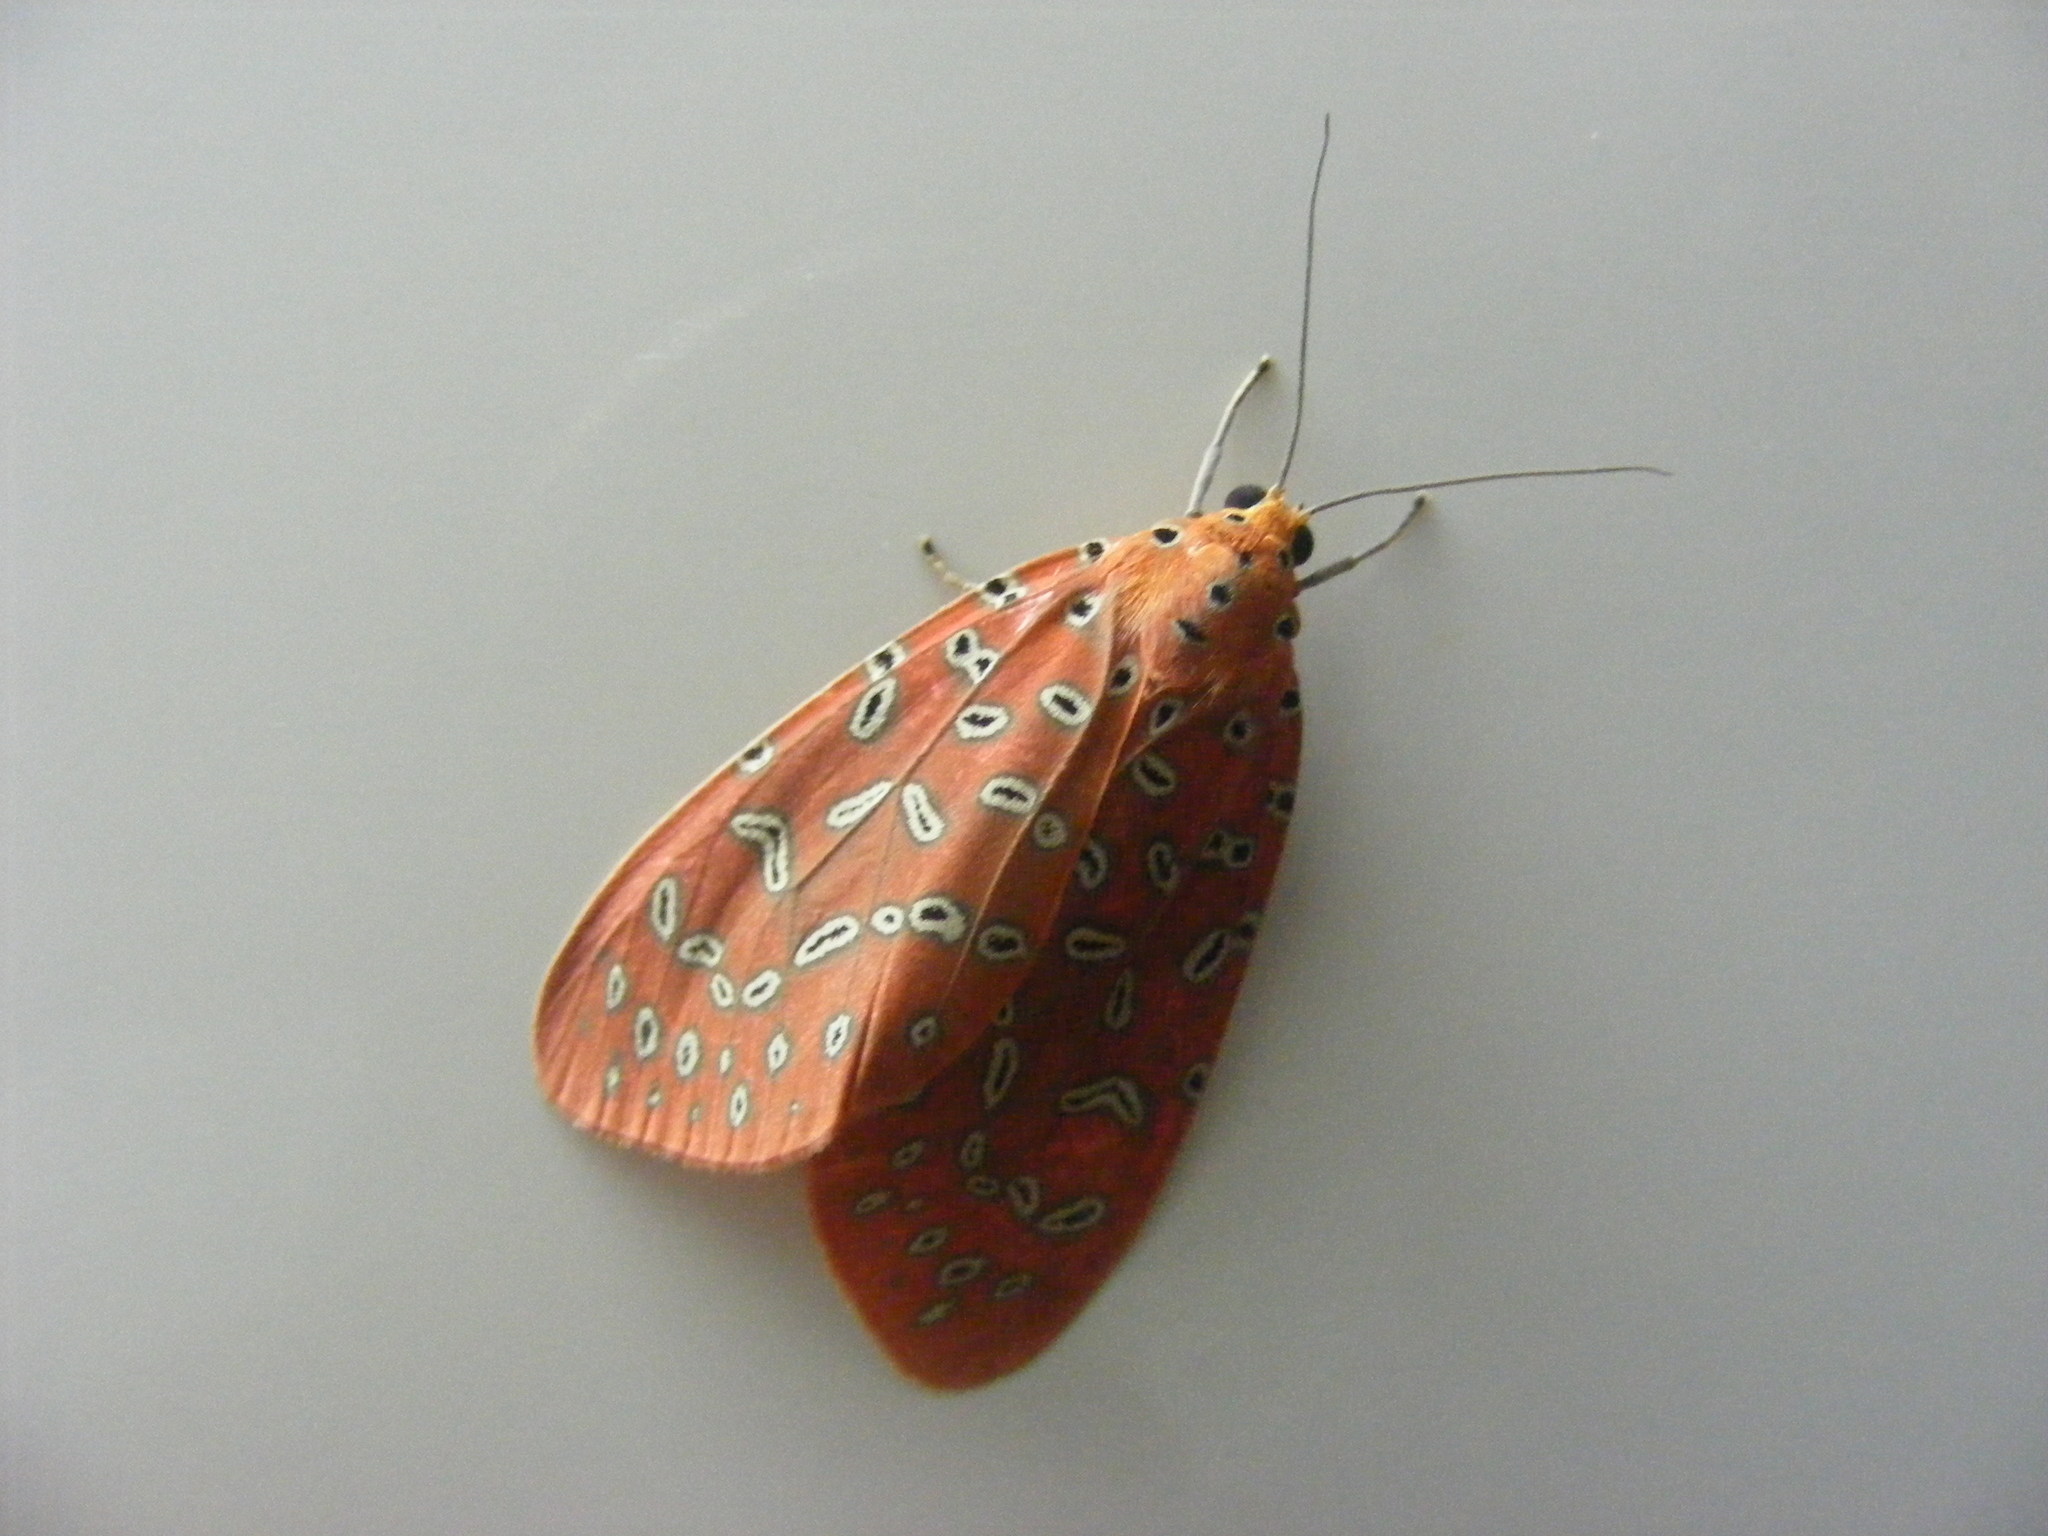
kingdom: Animalia
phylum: Arthropoda
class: Insecta
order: Lepidoptera
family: Erebidae
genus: Mangina
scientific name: Mangina argus
